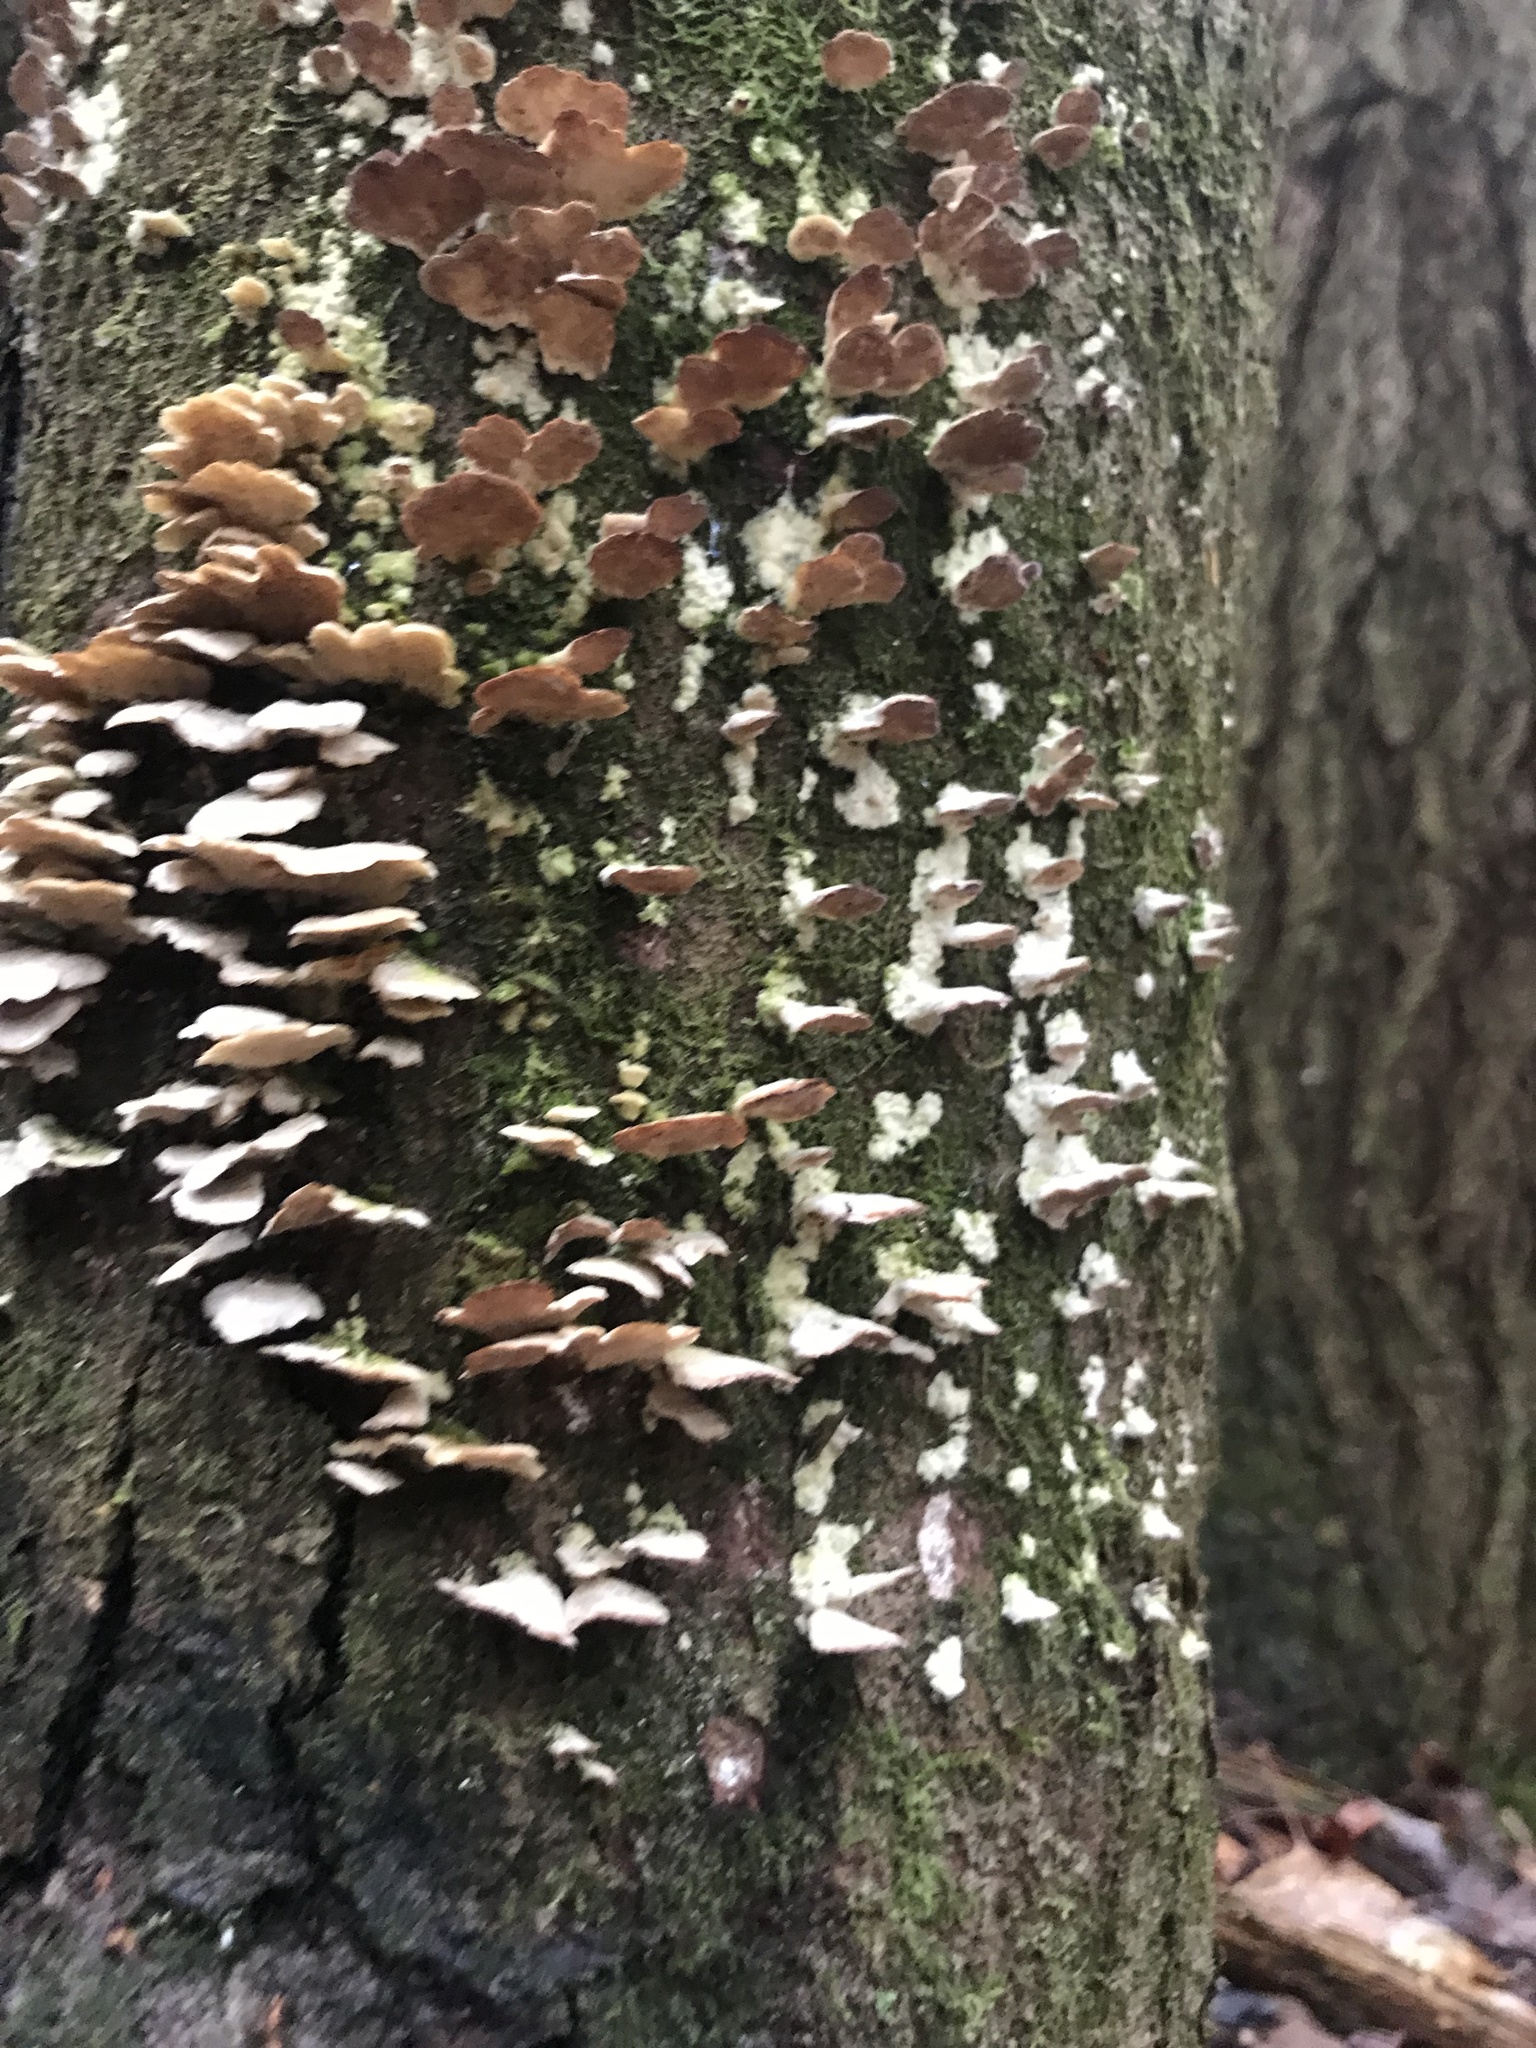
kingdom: Fungi
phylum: Basidiomycota
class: Agaricomycetes
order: Hymenochaetales
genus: Trichaptum
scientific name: Trichaptum biforme
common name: Violet-toothed polypore
